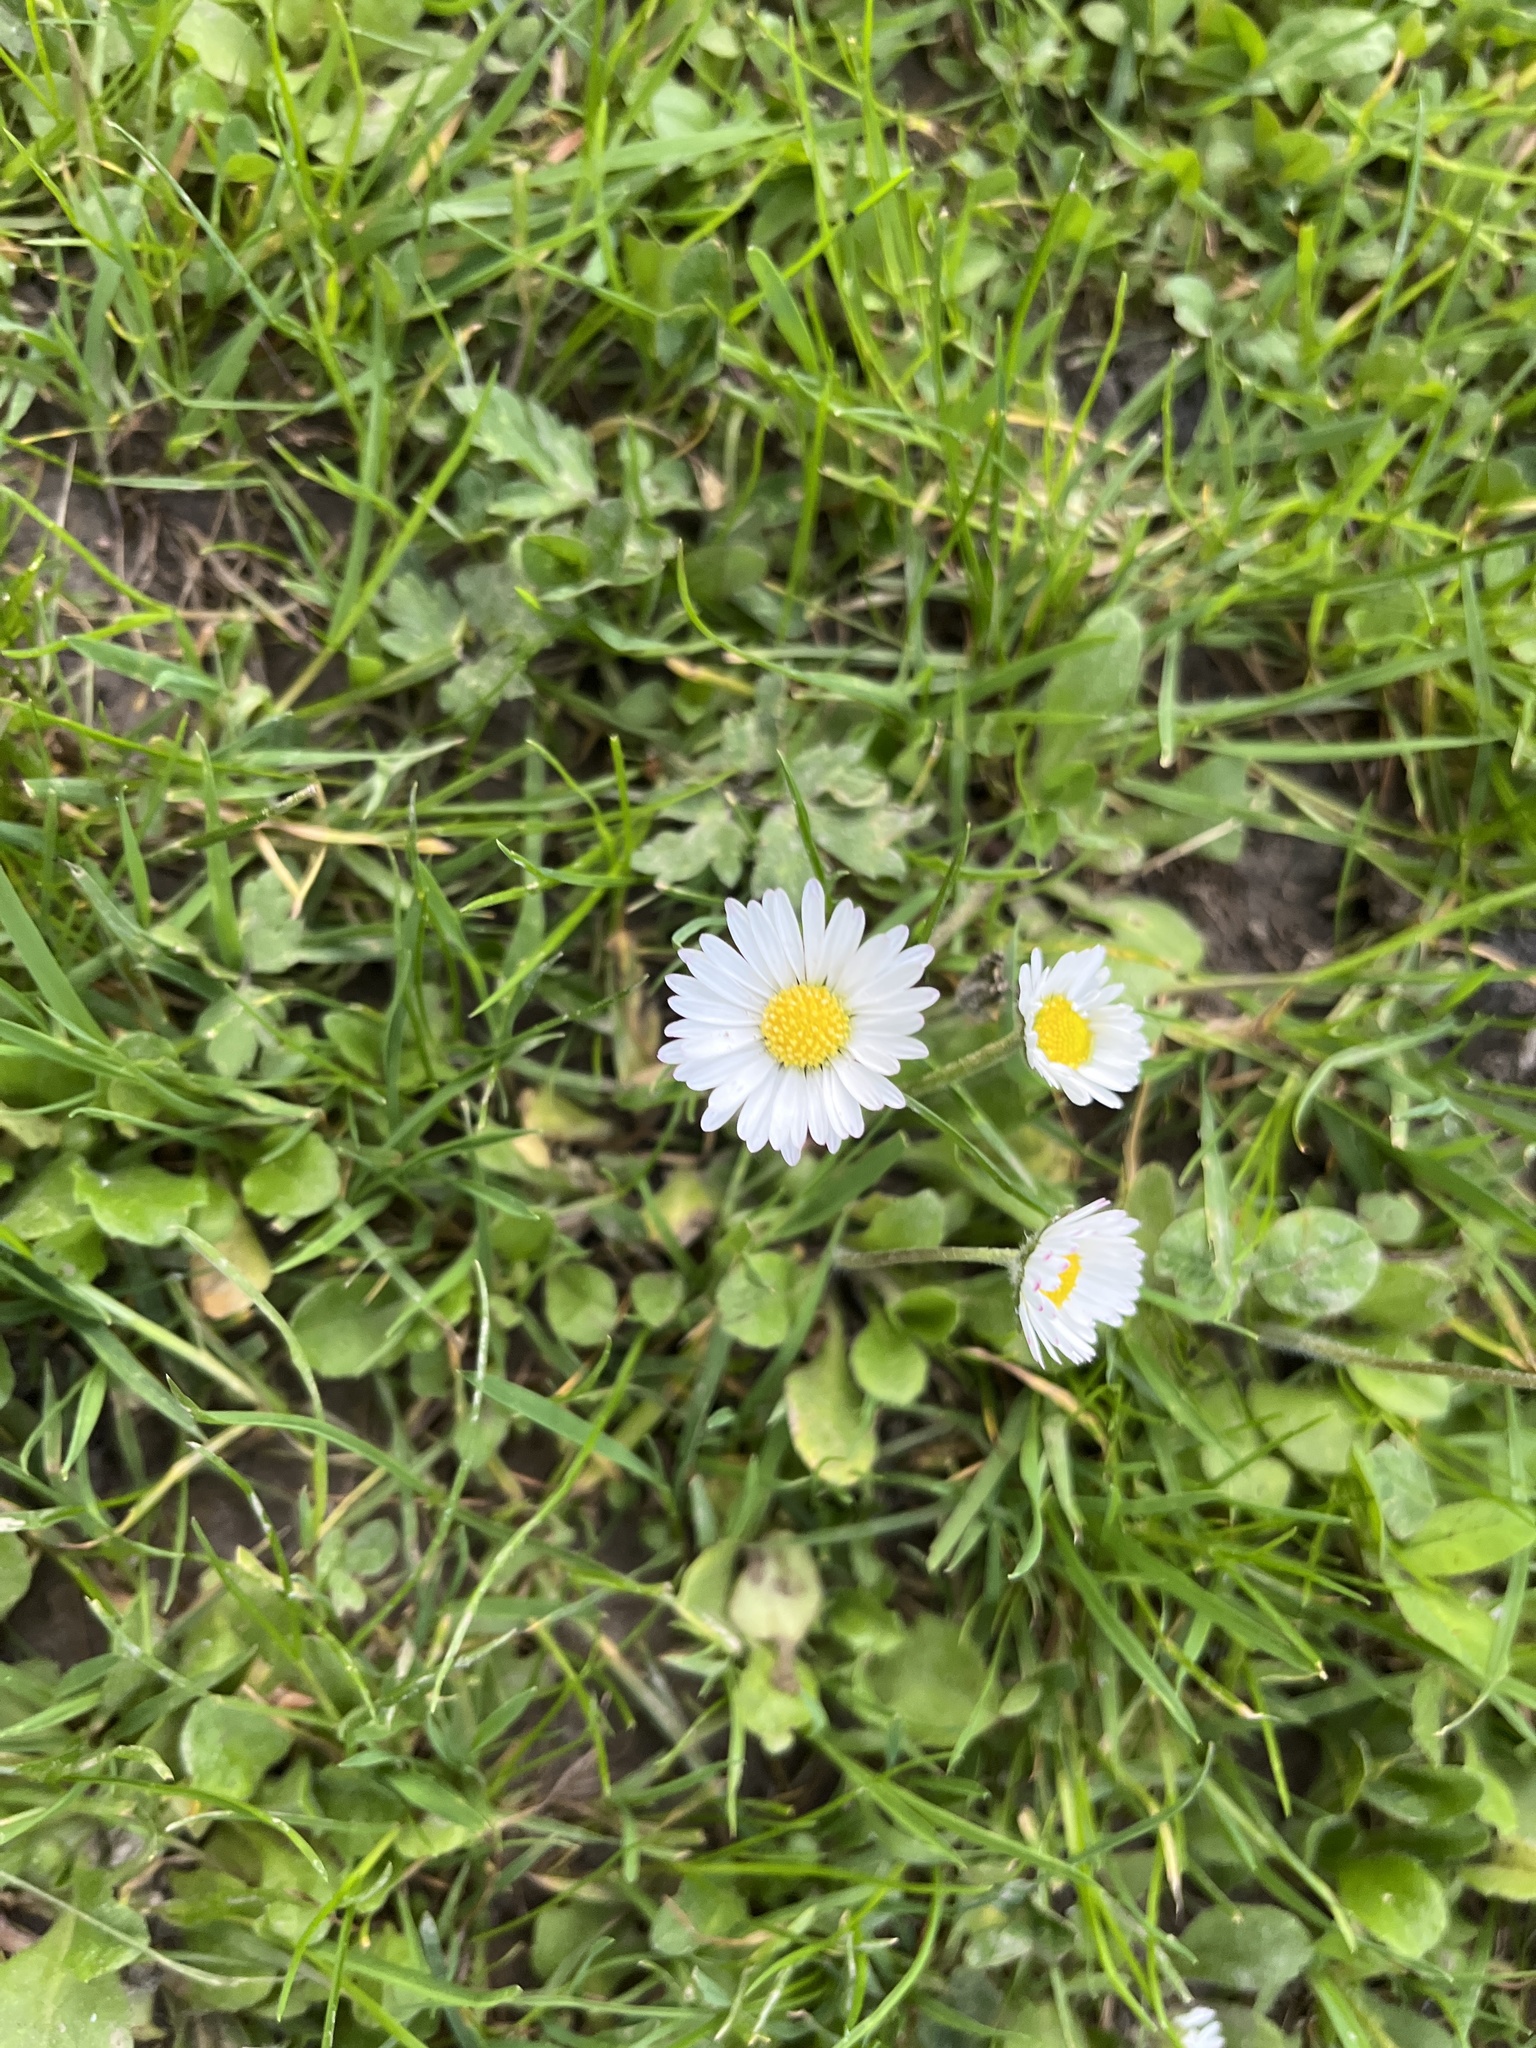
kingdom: Plantae
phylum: Tracheophyta
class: Magnoliopsida
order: Asterales
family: Asteraceae
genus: Bellis
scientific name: Bellis perennis
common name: Lawndaisy
